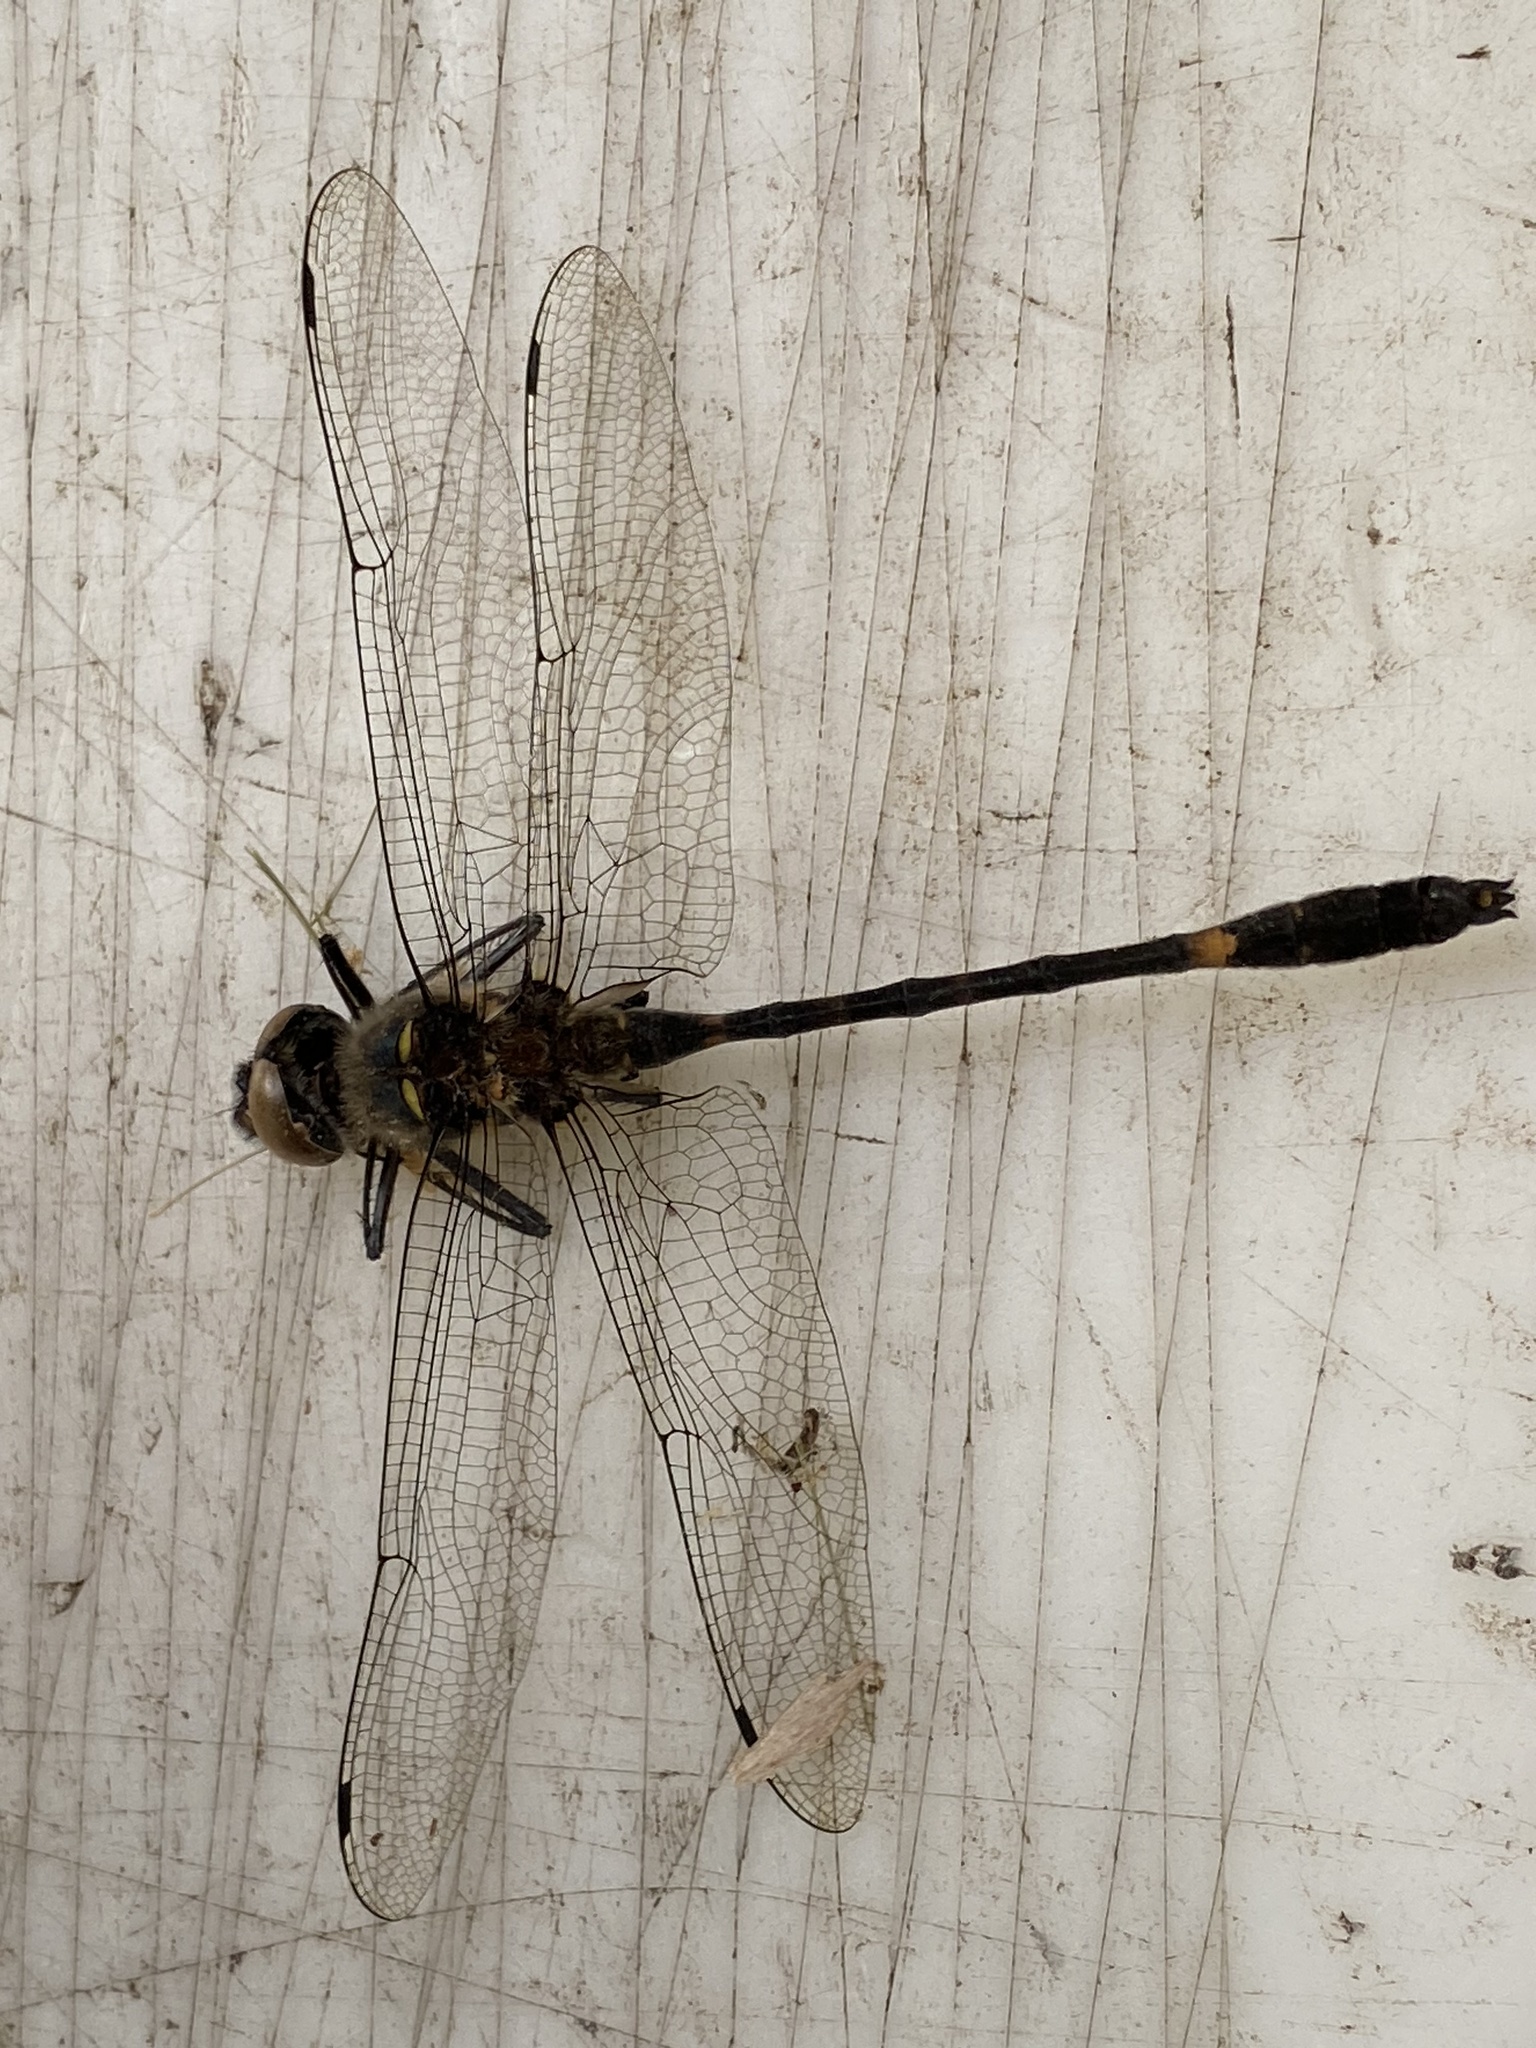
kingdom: Animalia
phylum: Arthropoda
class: Insecta
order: Odonata
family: Macromiidae
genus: Macromia
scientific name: Macromia illinoiensis
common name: Swift river cruiser
